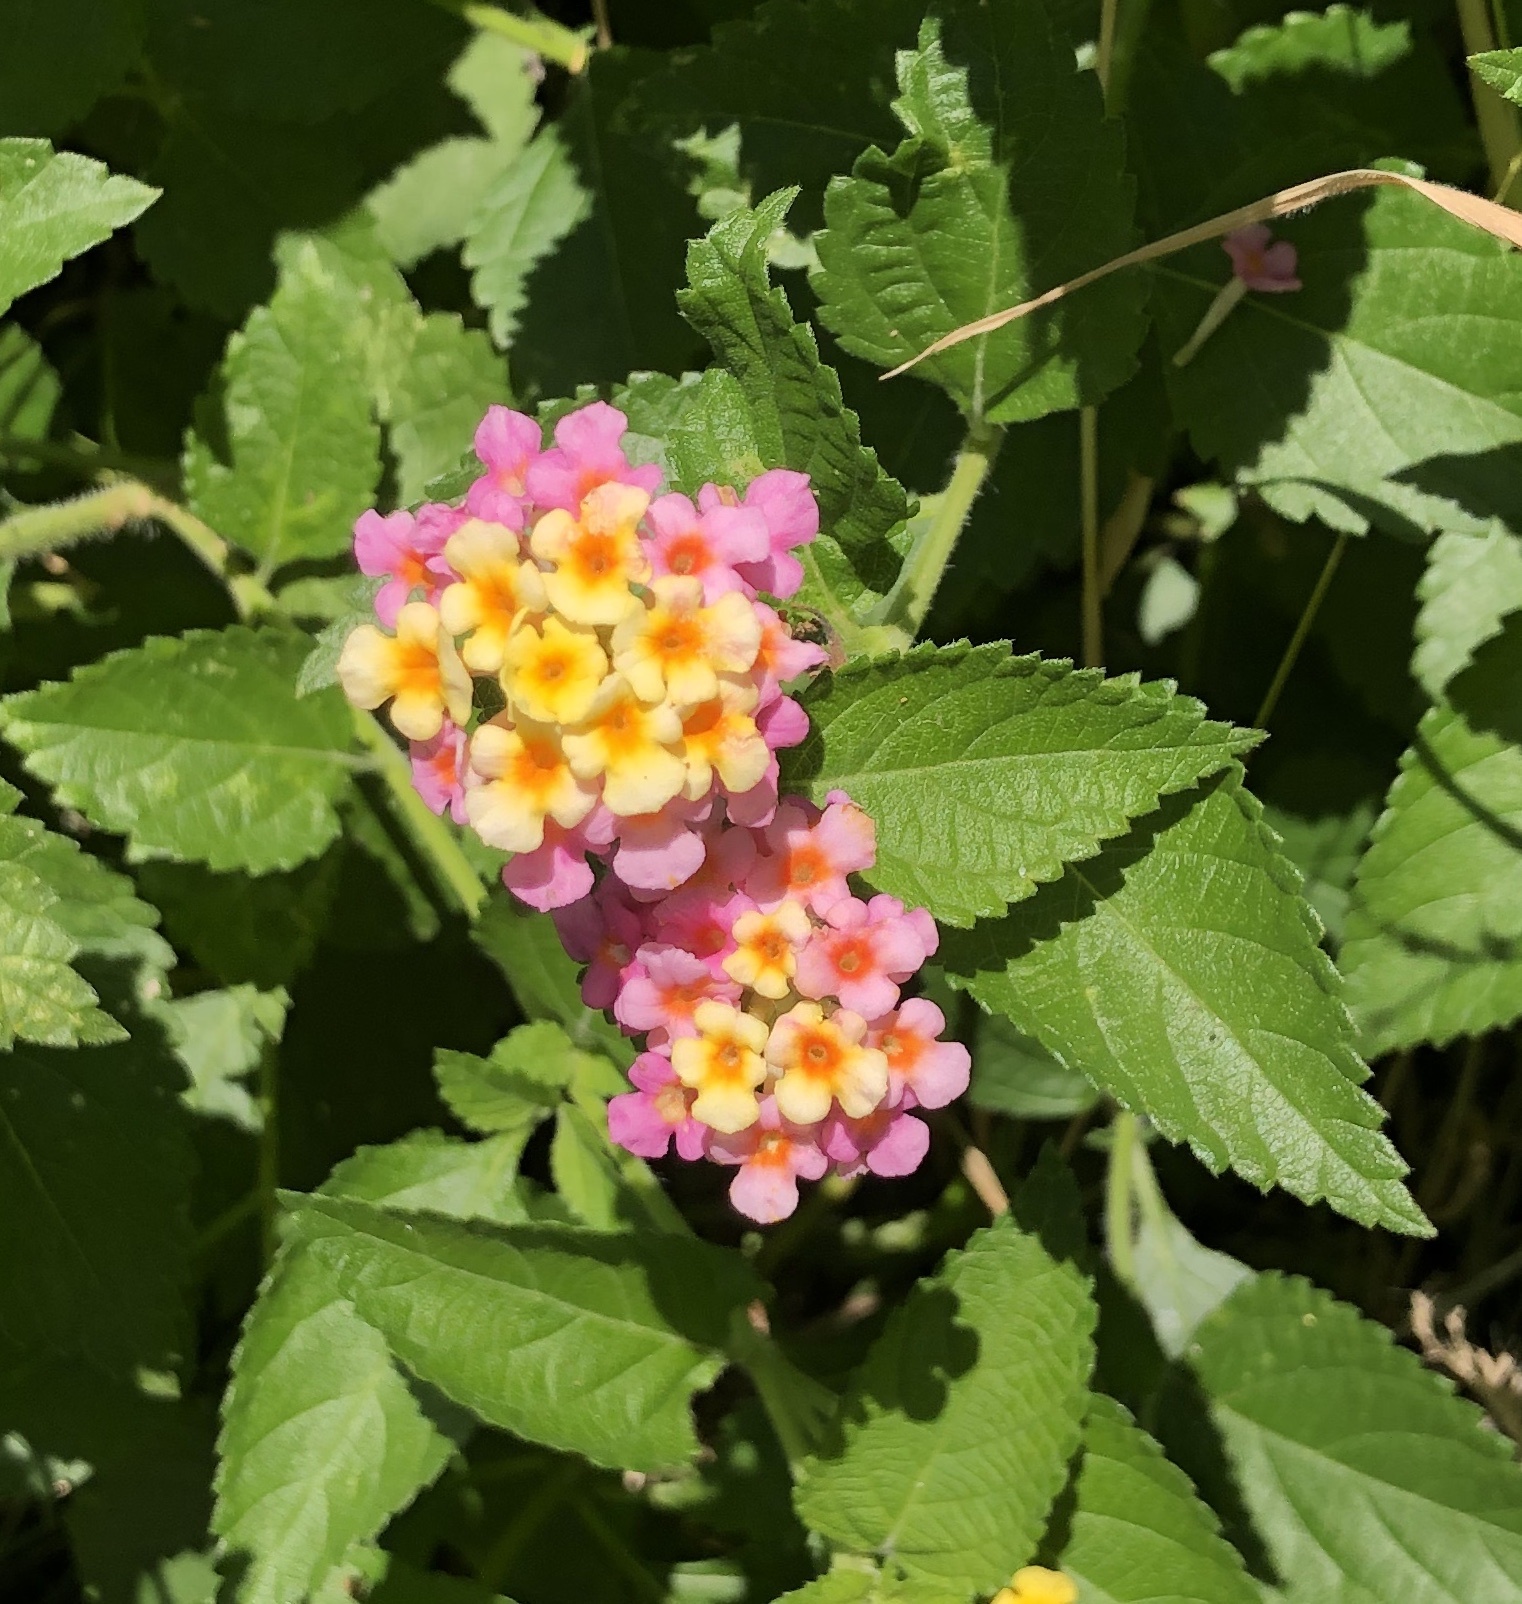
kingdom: Plantae
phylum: Tracheophyta
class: Magnoliopsida
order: Lamiales
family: Verbenaceae
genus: Lantana
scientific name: Lantana strigocamara
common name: Lantana
